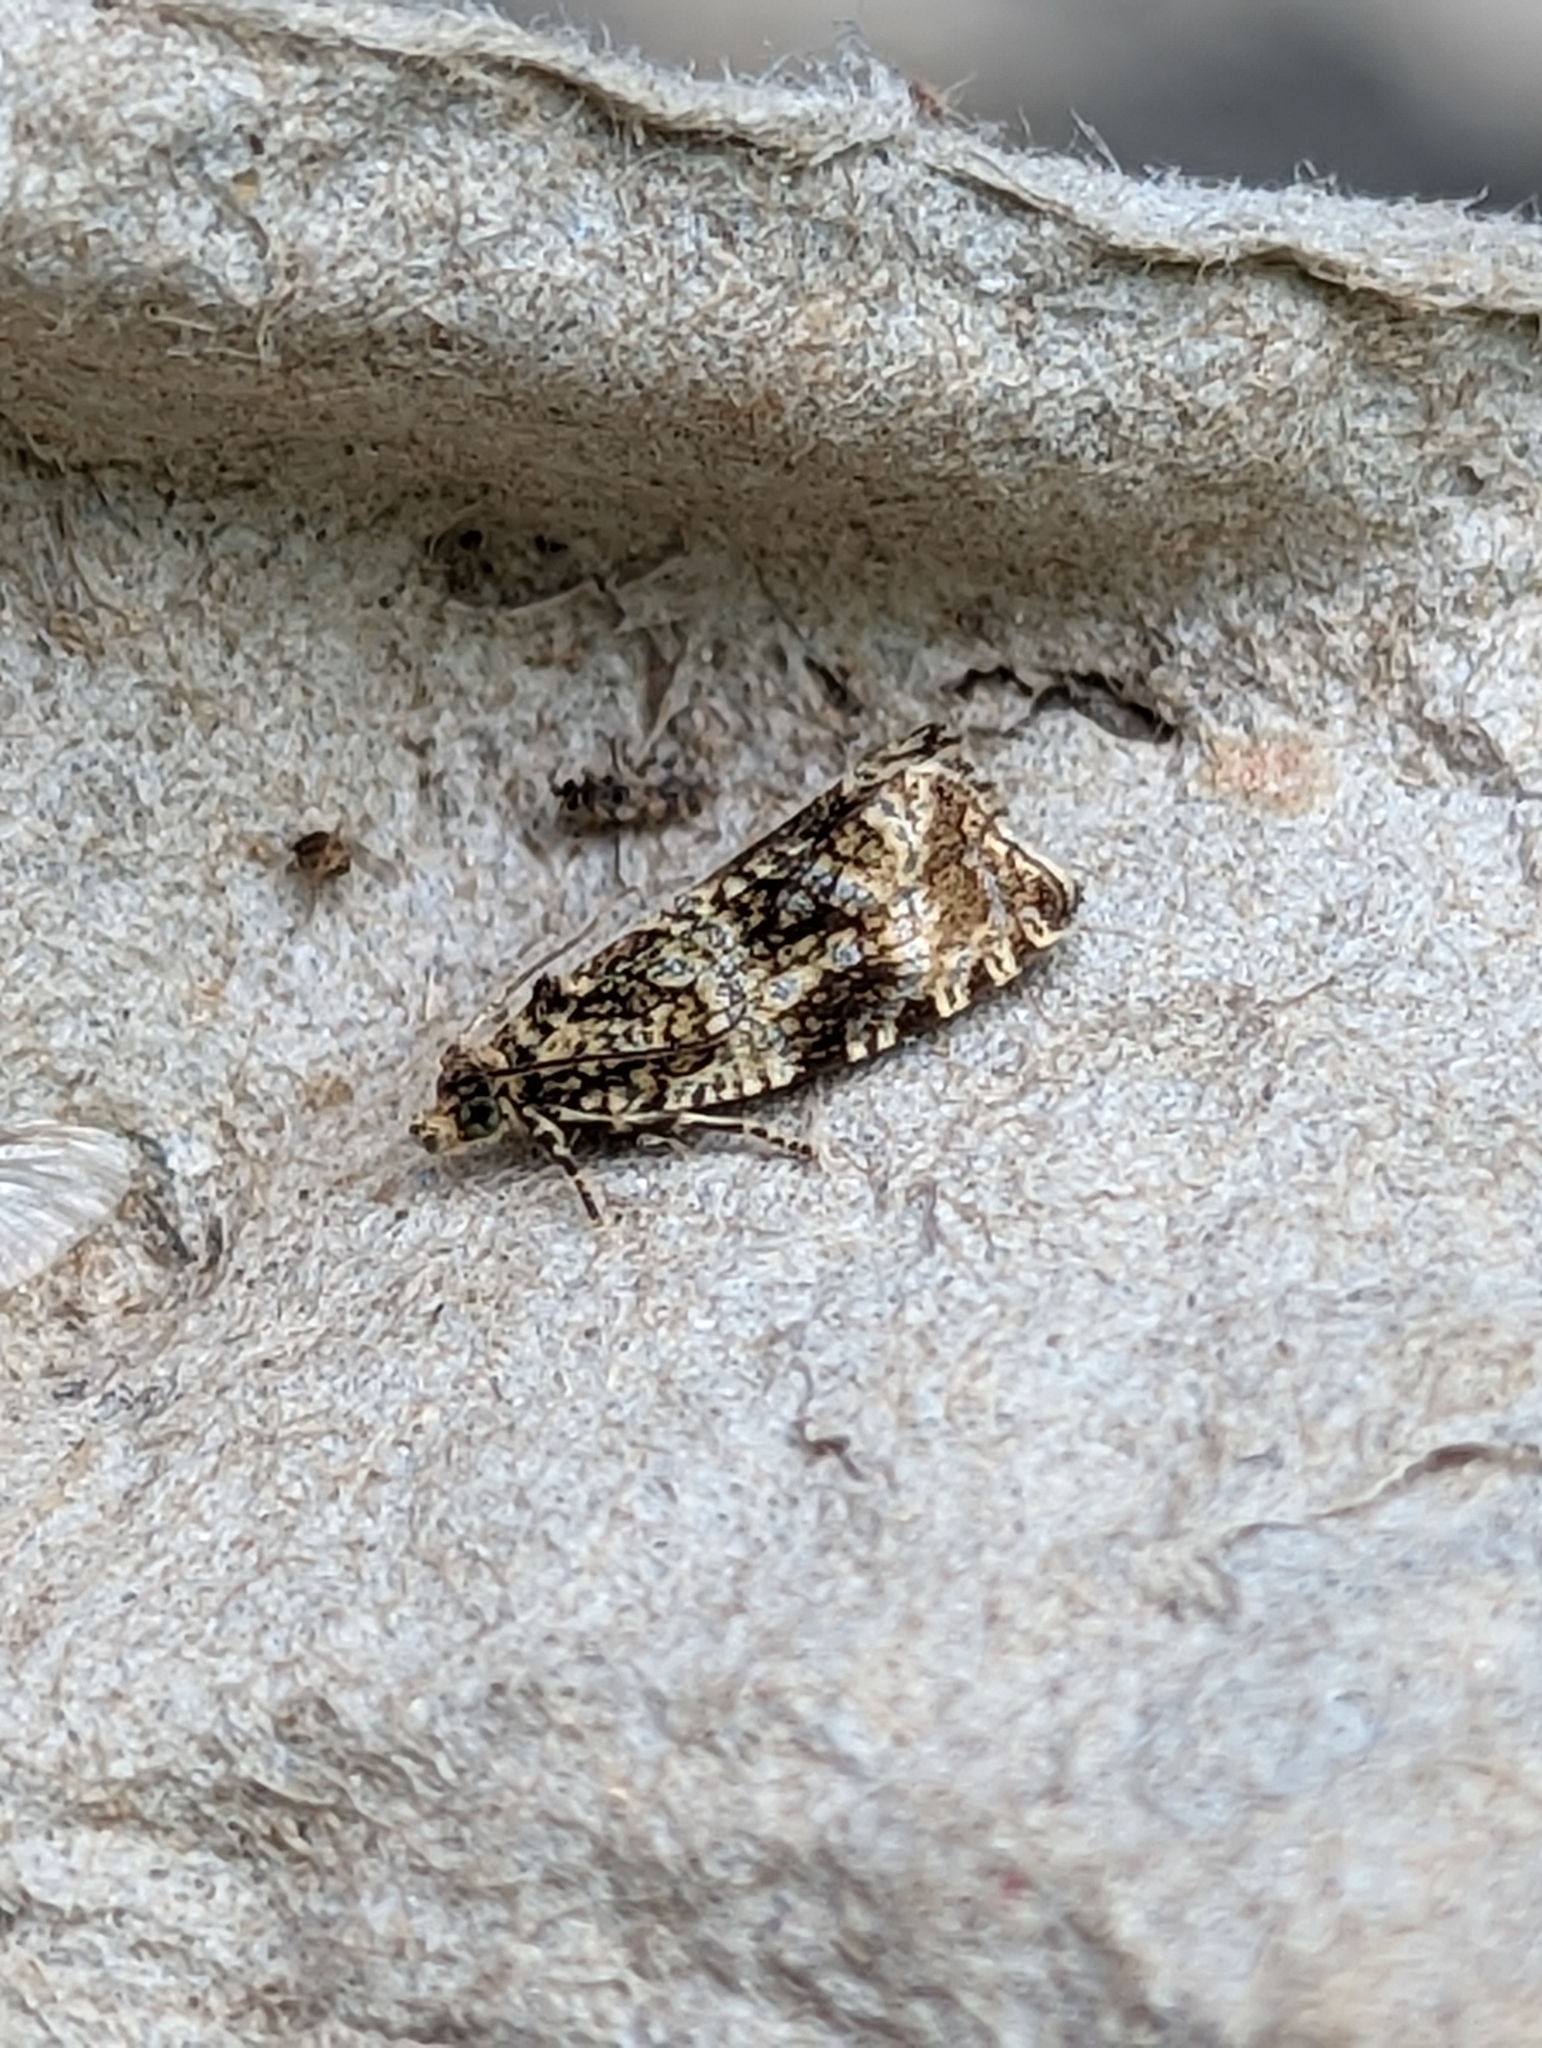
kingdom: Animalia
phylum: Arthropoda
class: Insecta
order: Lepidoptera
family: Tortricidae
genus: Syricoris
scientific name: Syricoris lacunana
